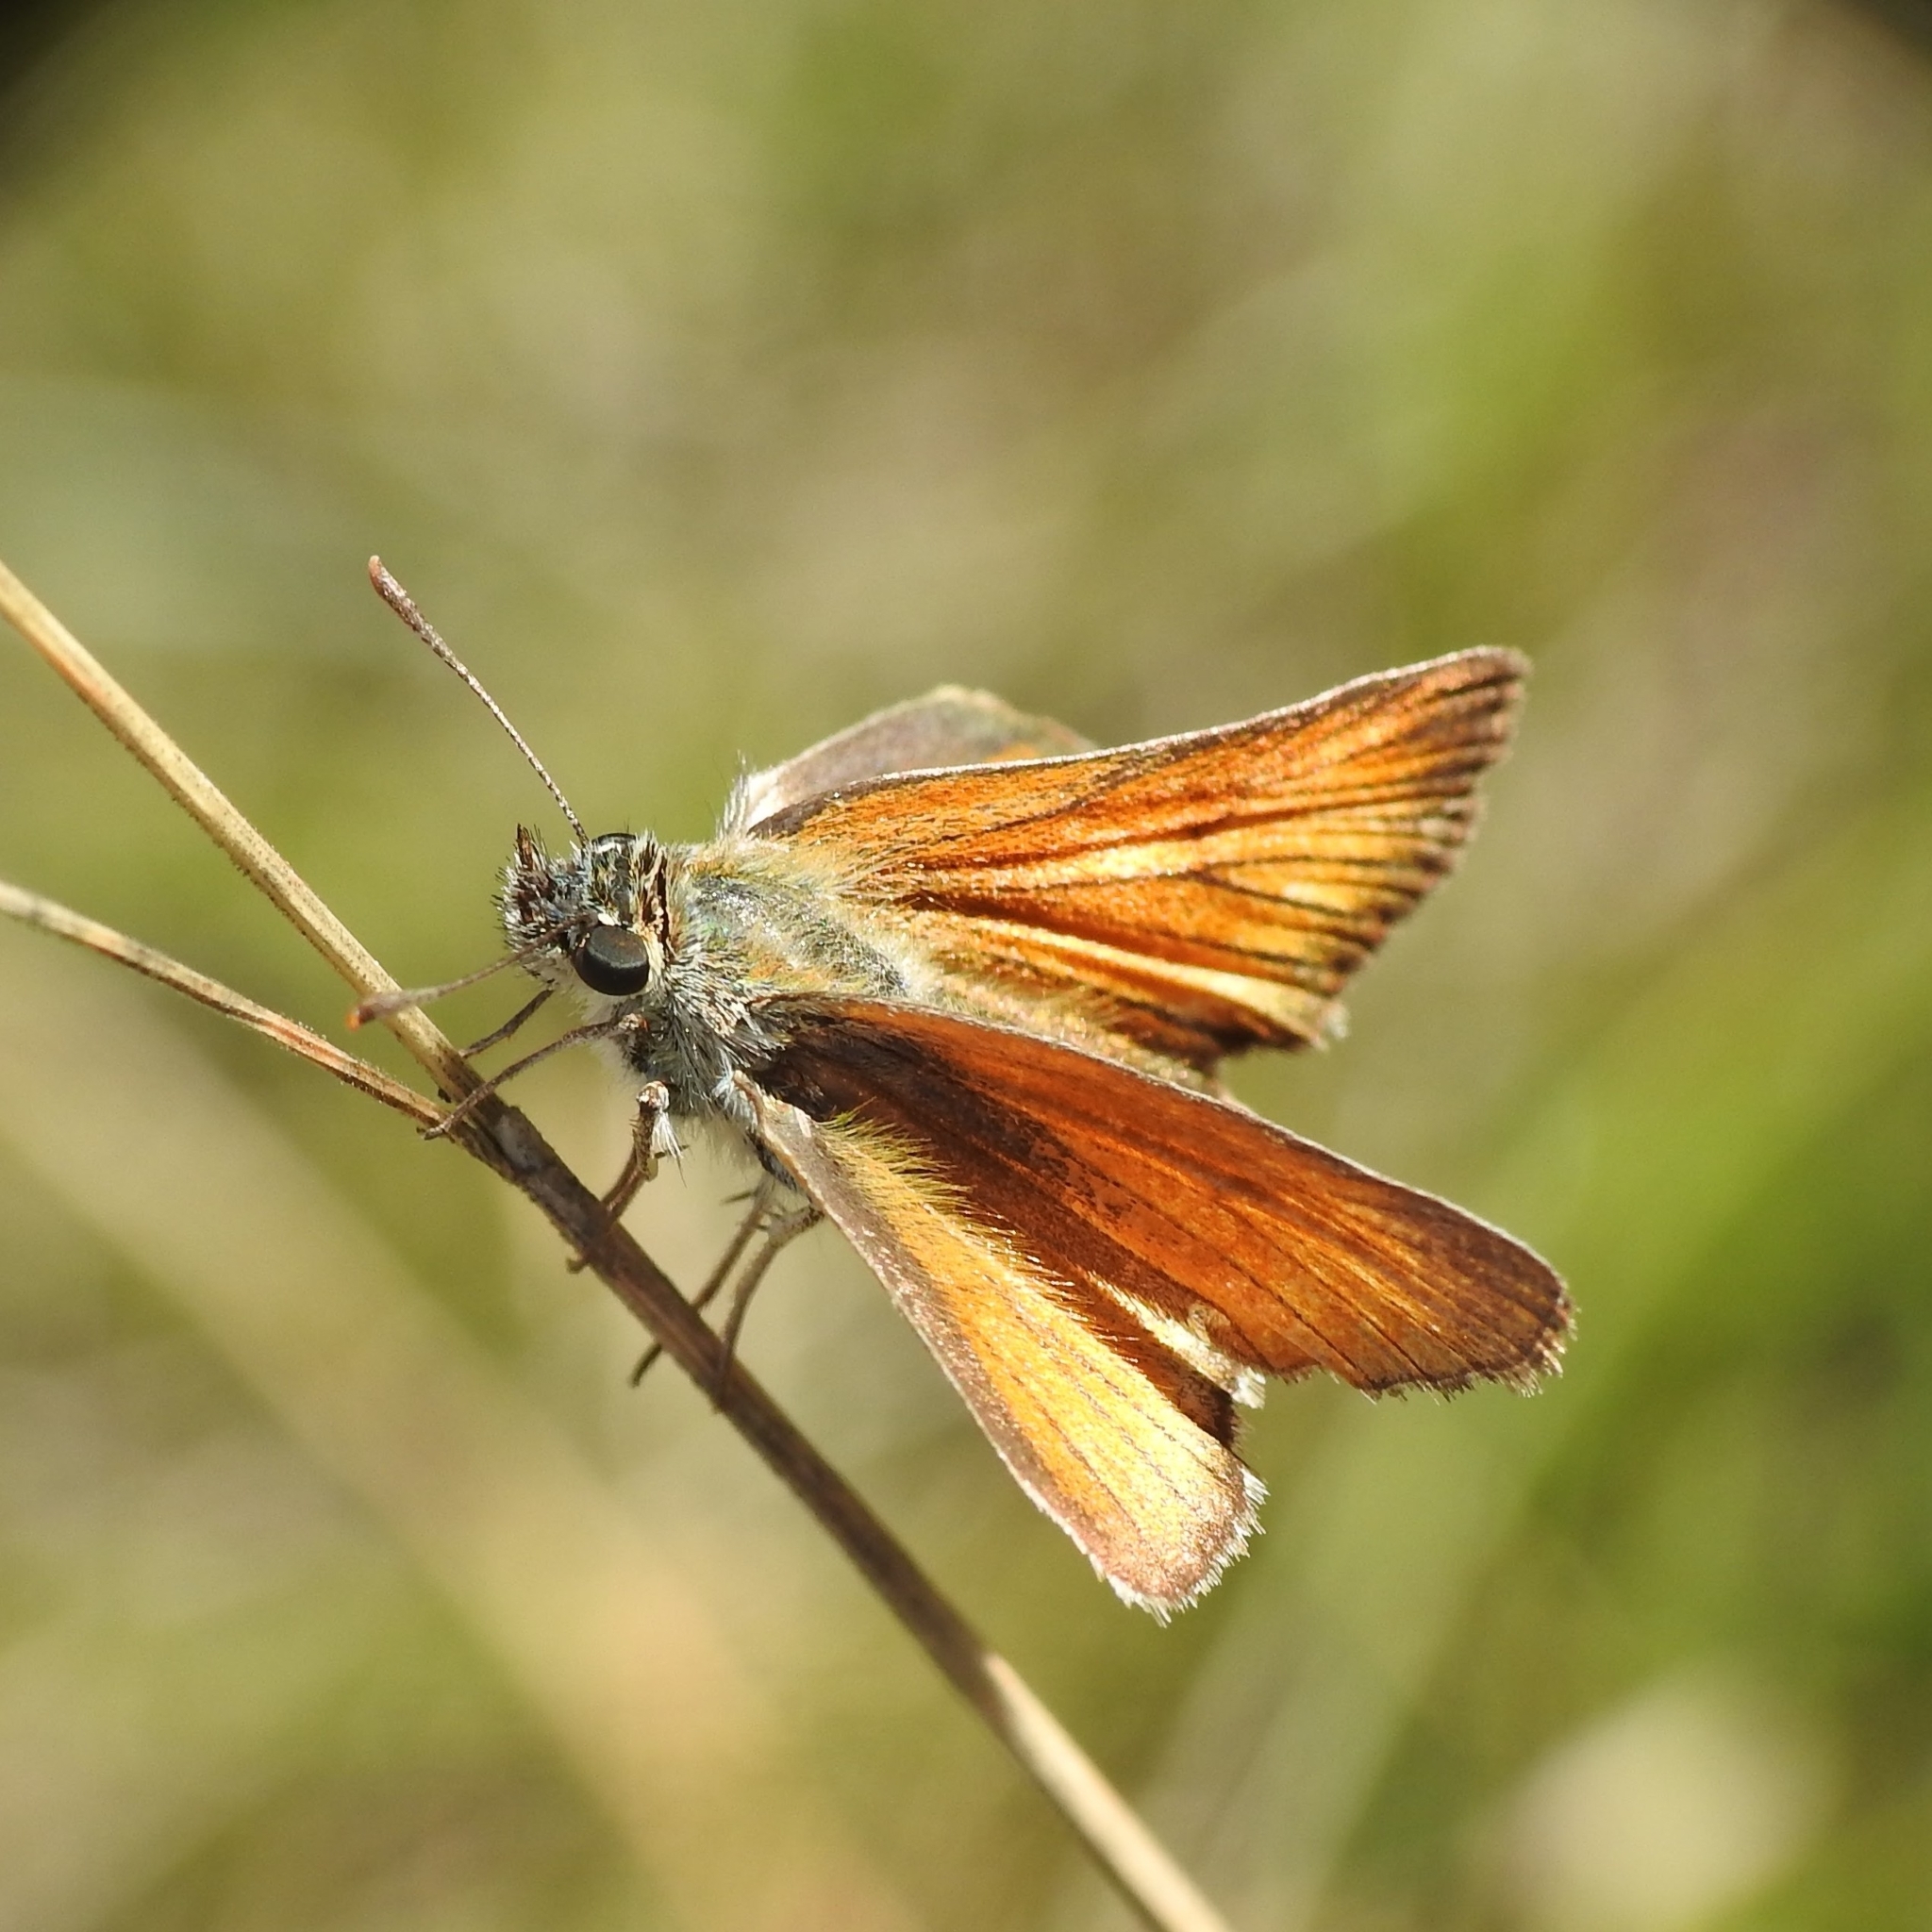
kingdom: Animalia
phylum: Arthropoda
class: Insecta
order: Lepidoptera
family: Hesperiidae
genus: Thymelicus
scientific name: Thymelicus sylvestris
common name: Small skipper
